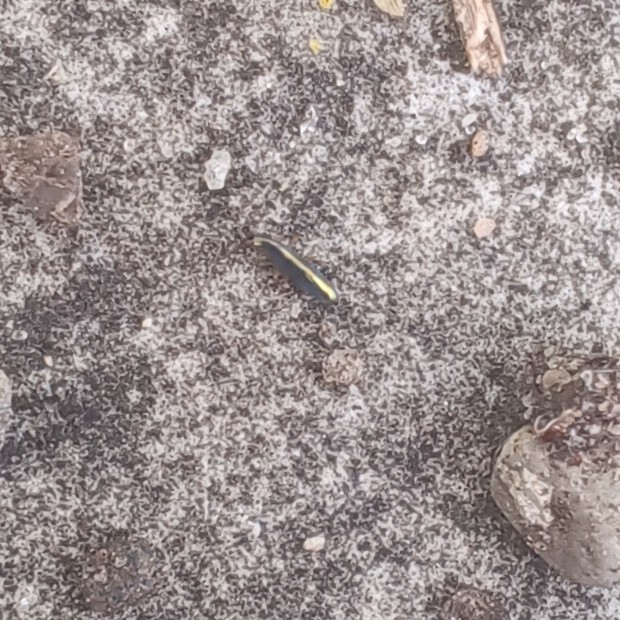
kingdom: Animalia
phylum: Arthropoda
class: Collembola
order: Entomobryomorpha
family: Entomobryidae
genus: Lepidocyrtus
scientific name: Lepidocyrtus paradoxus
